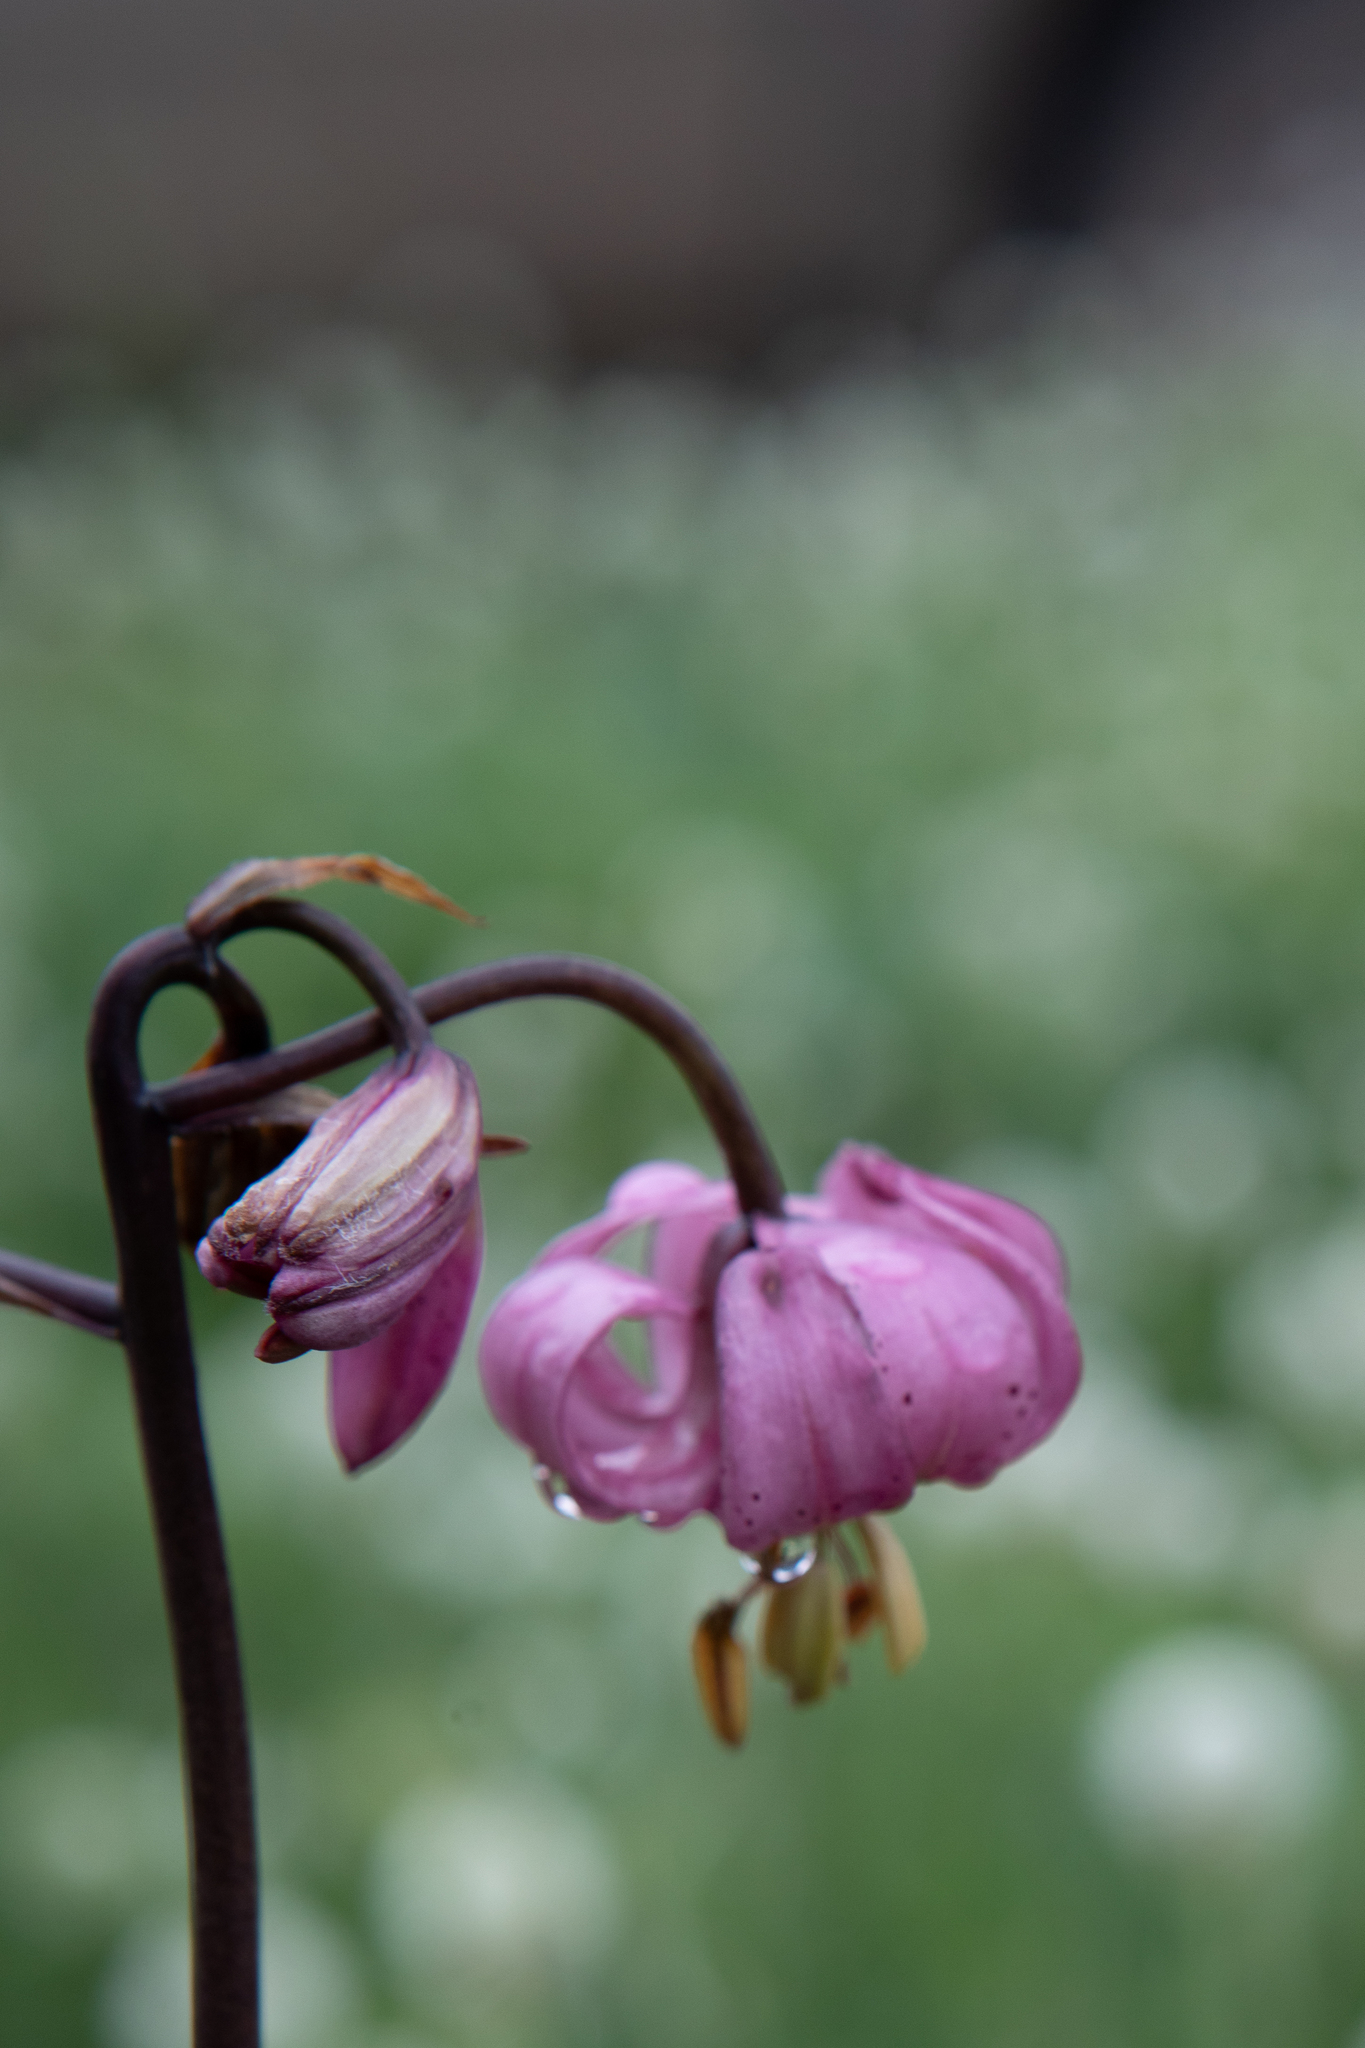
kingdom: Plantae
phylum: Tracheophyta
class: Liliopsida
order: Liliales
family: Liliaceae
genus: Lilium
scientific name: Lilium martagon
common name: Martagon lily
